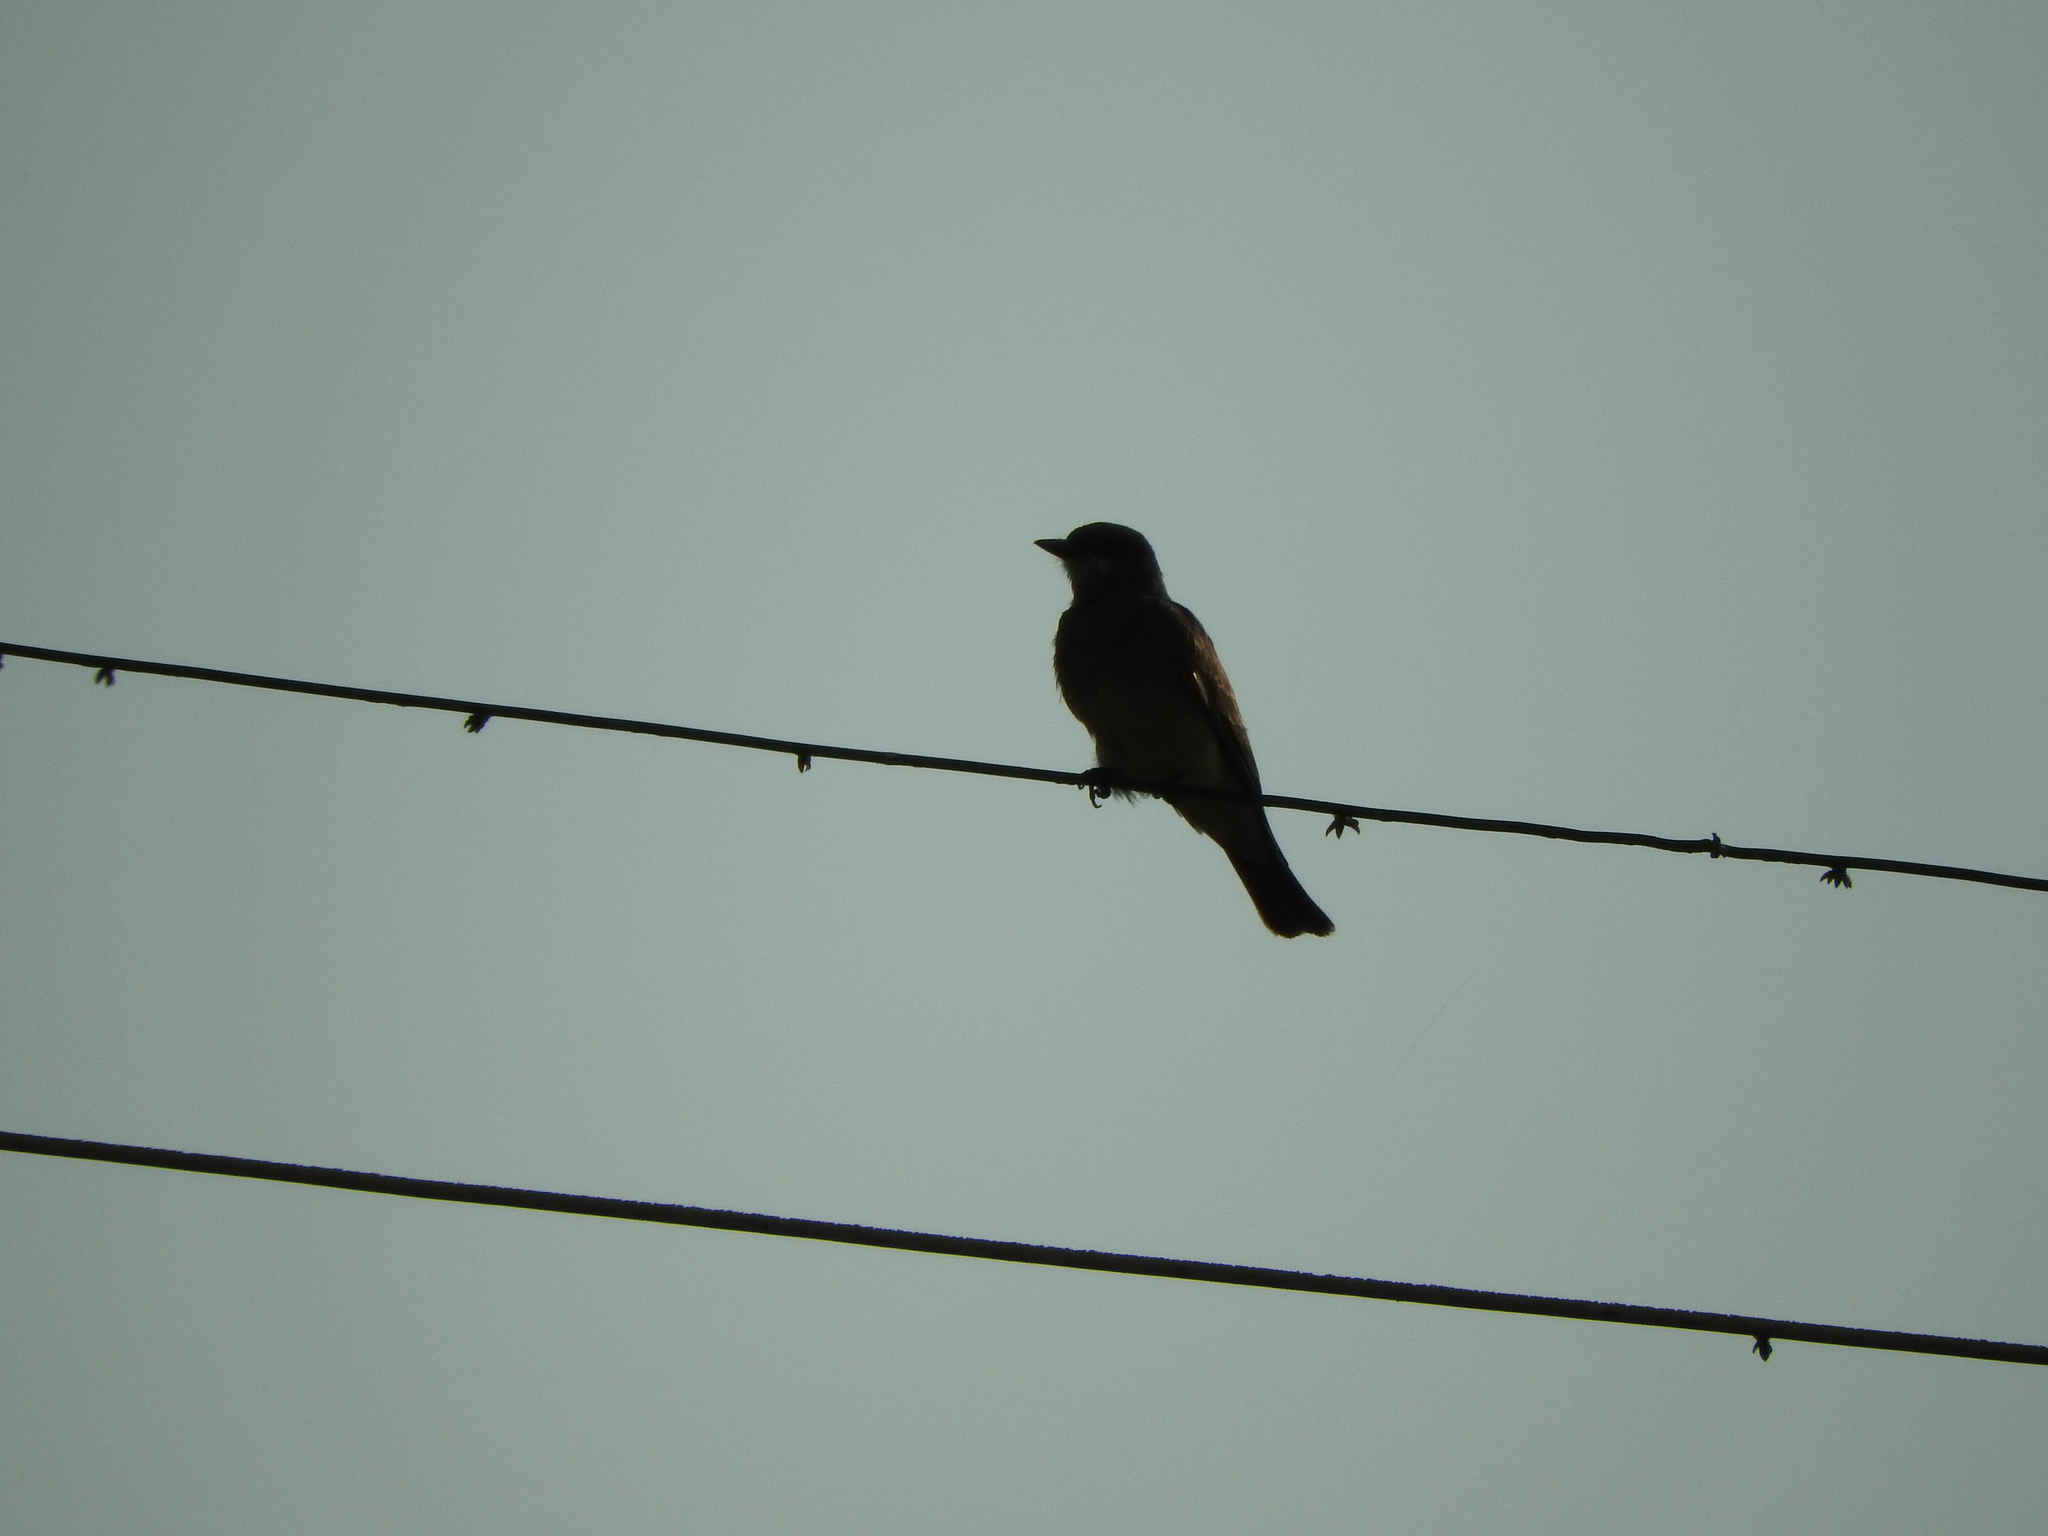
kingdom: Animalia
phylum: Chordata
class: Aves
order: Passeriformes
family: Tyrannidae
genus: Tyrannus
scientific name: Tyrannus vociferans
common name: Cassin's kingbird
